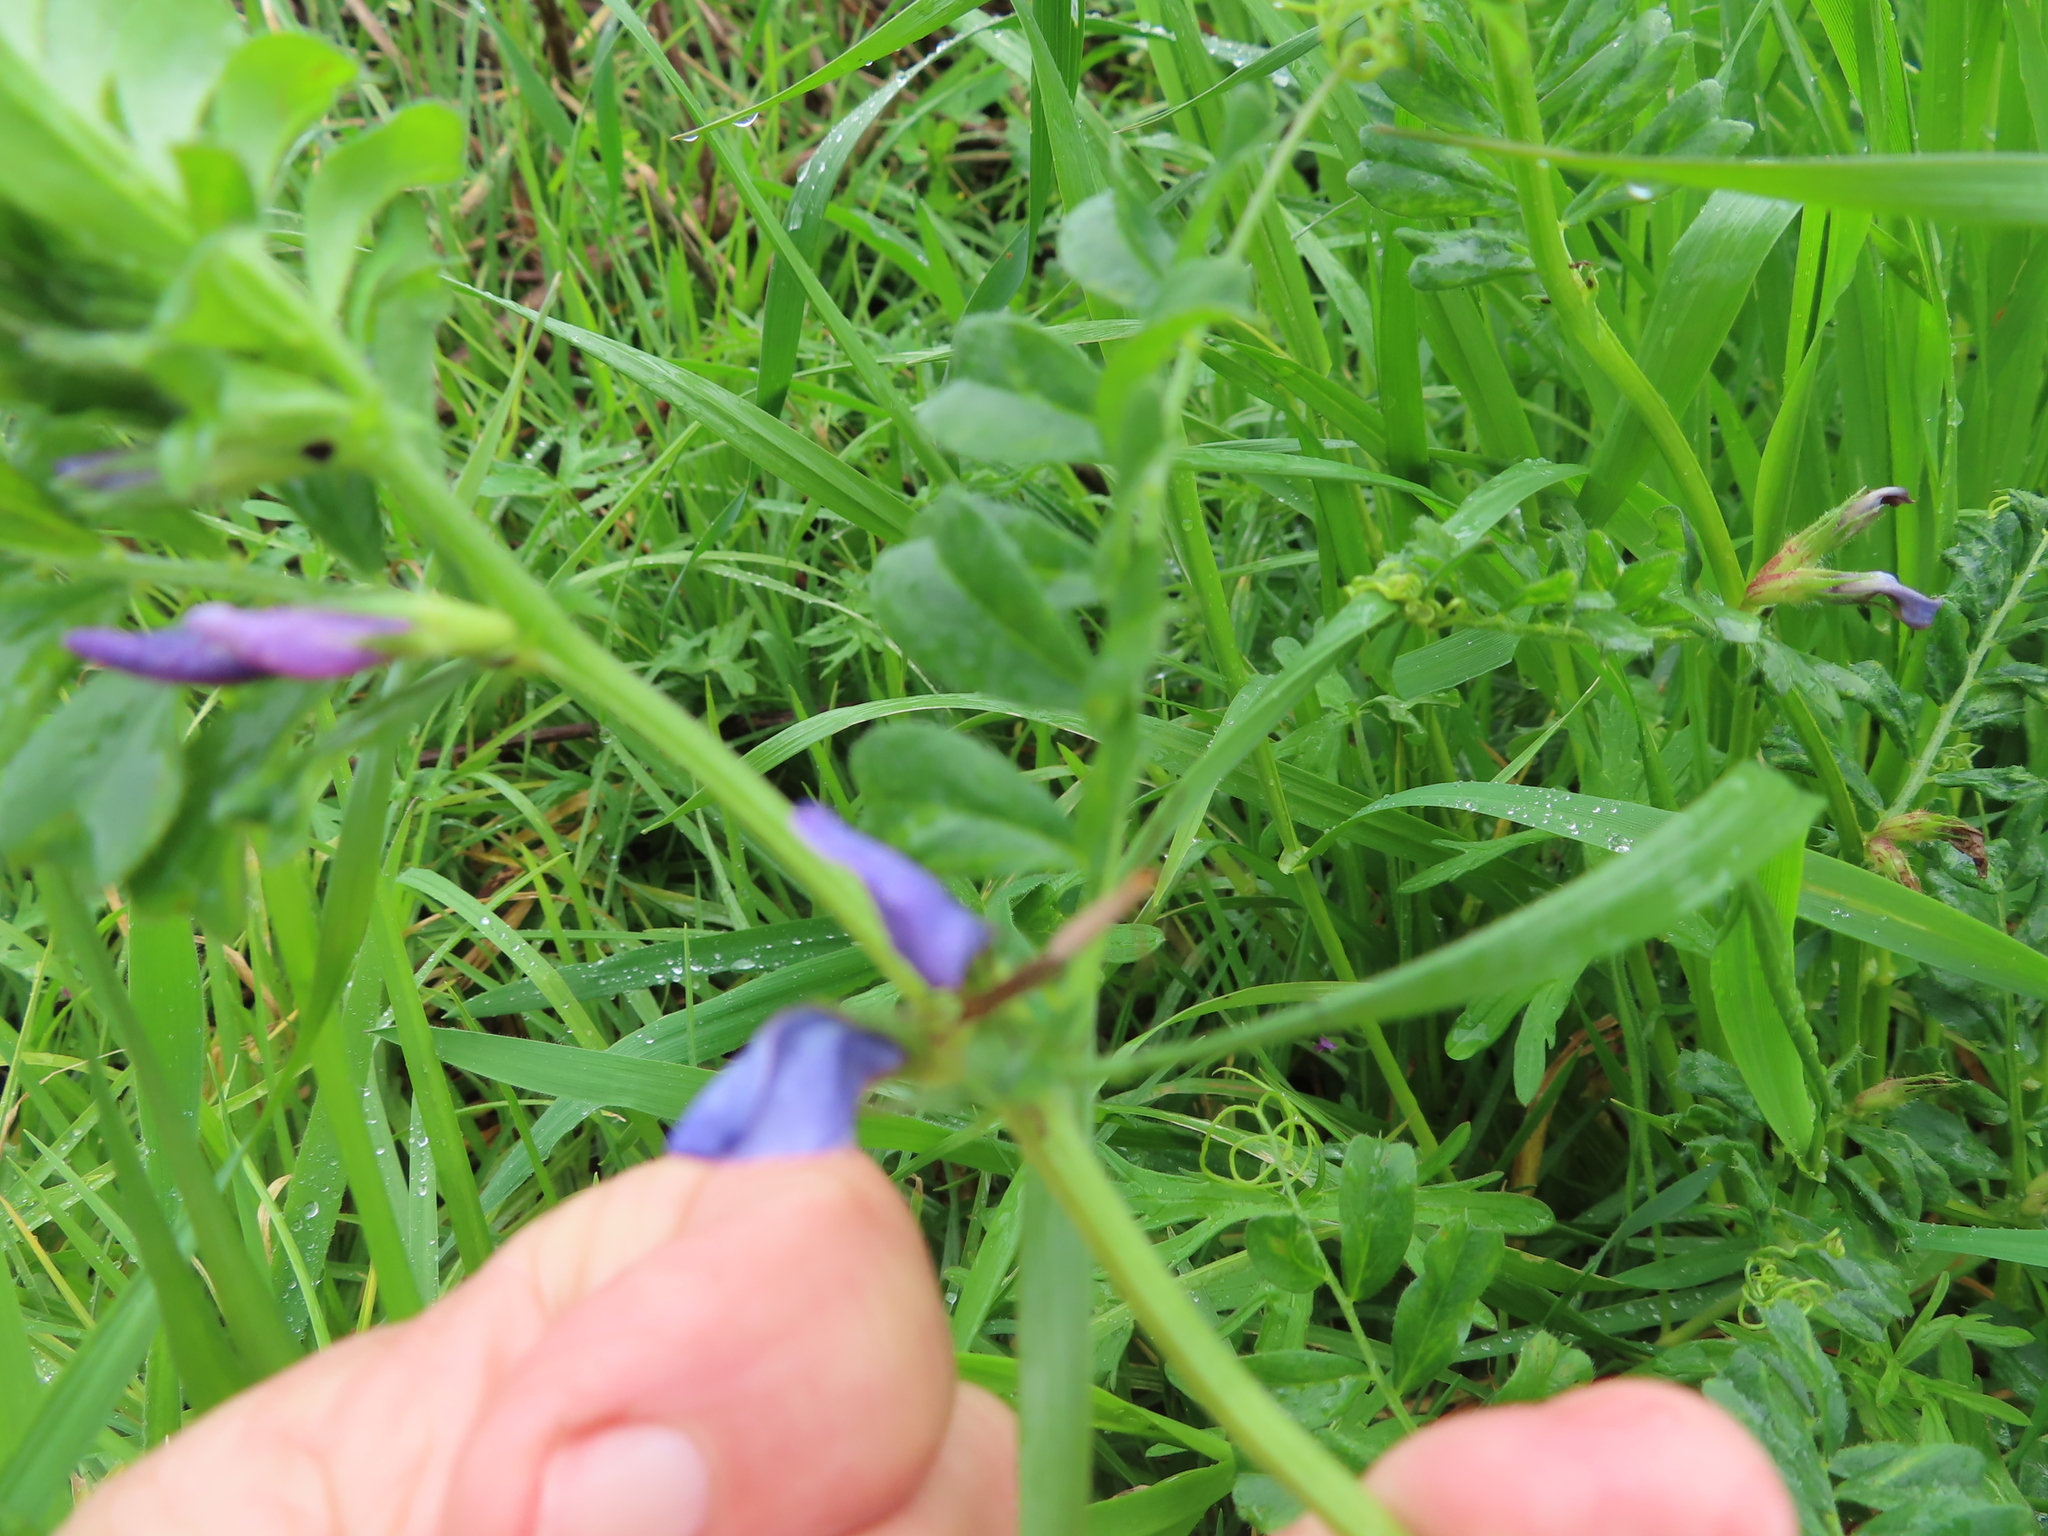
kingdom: Plantae
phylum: Tracheophyta
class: Magnoliopsida
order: Fabales
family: Fabaceae
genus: Vicia
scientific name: Vicia sativa
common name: Garden vetch
